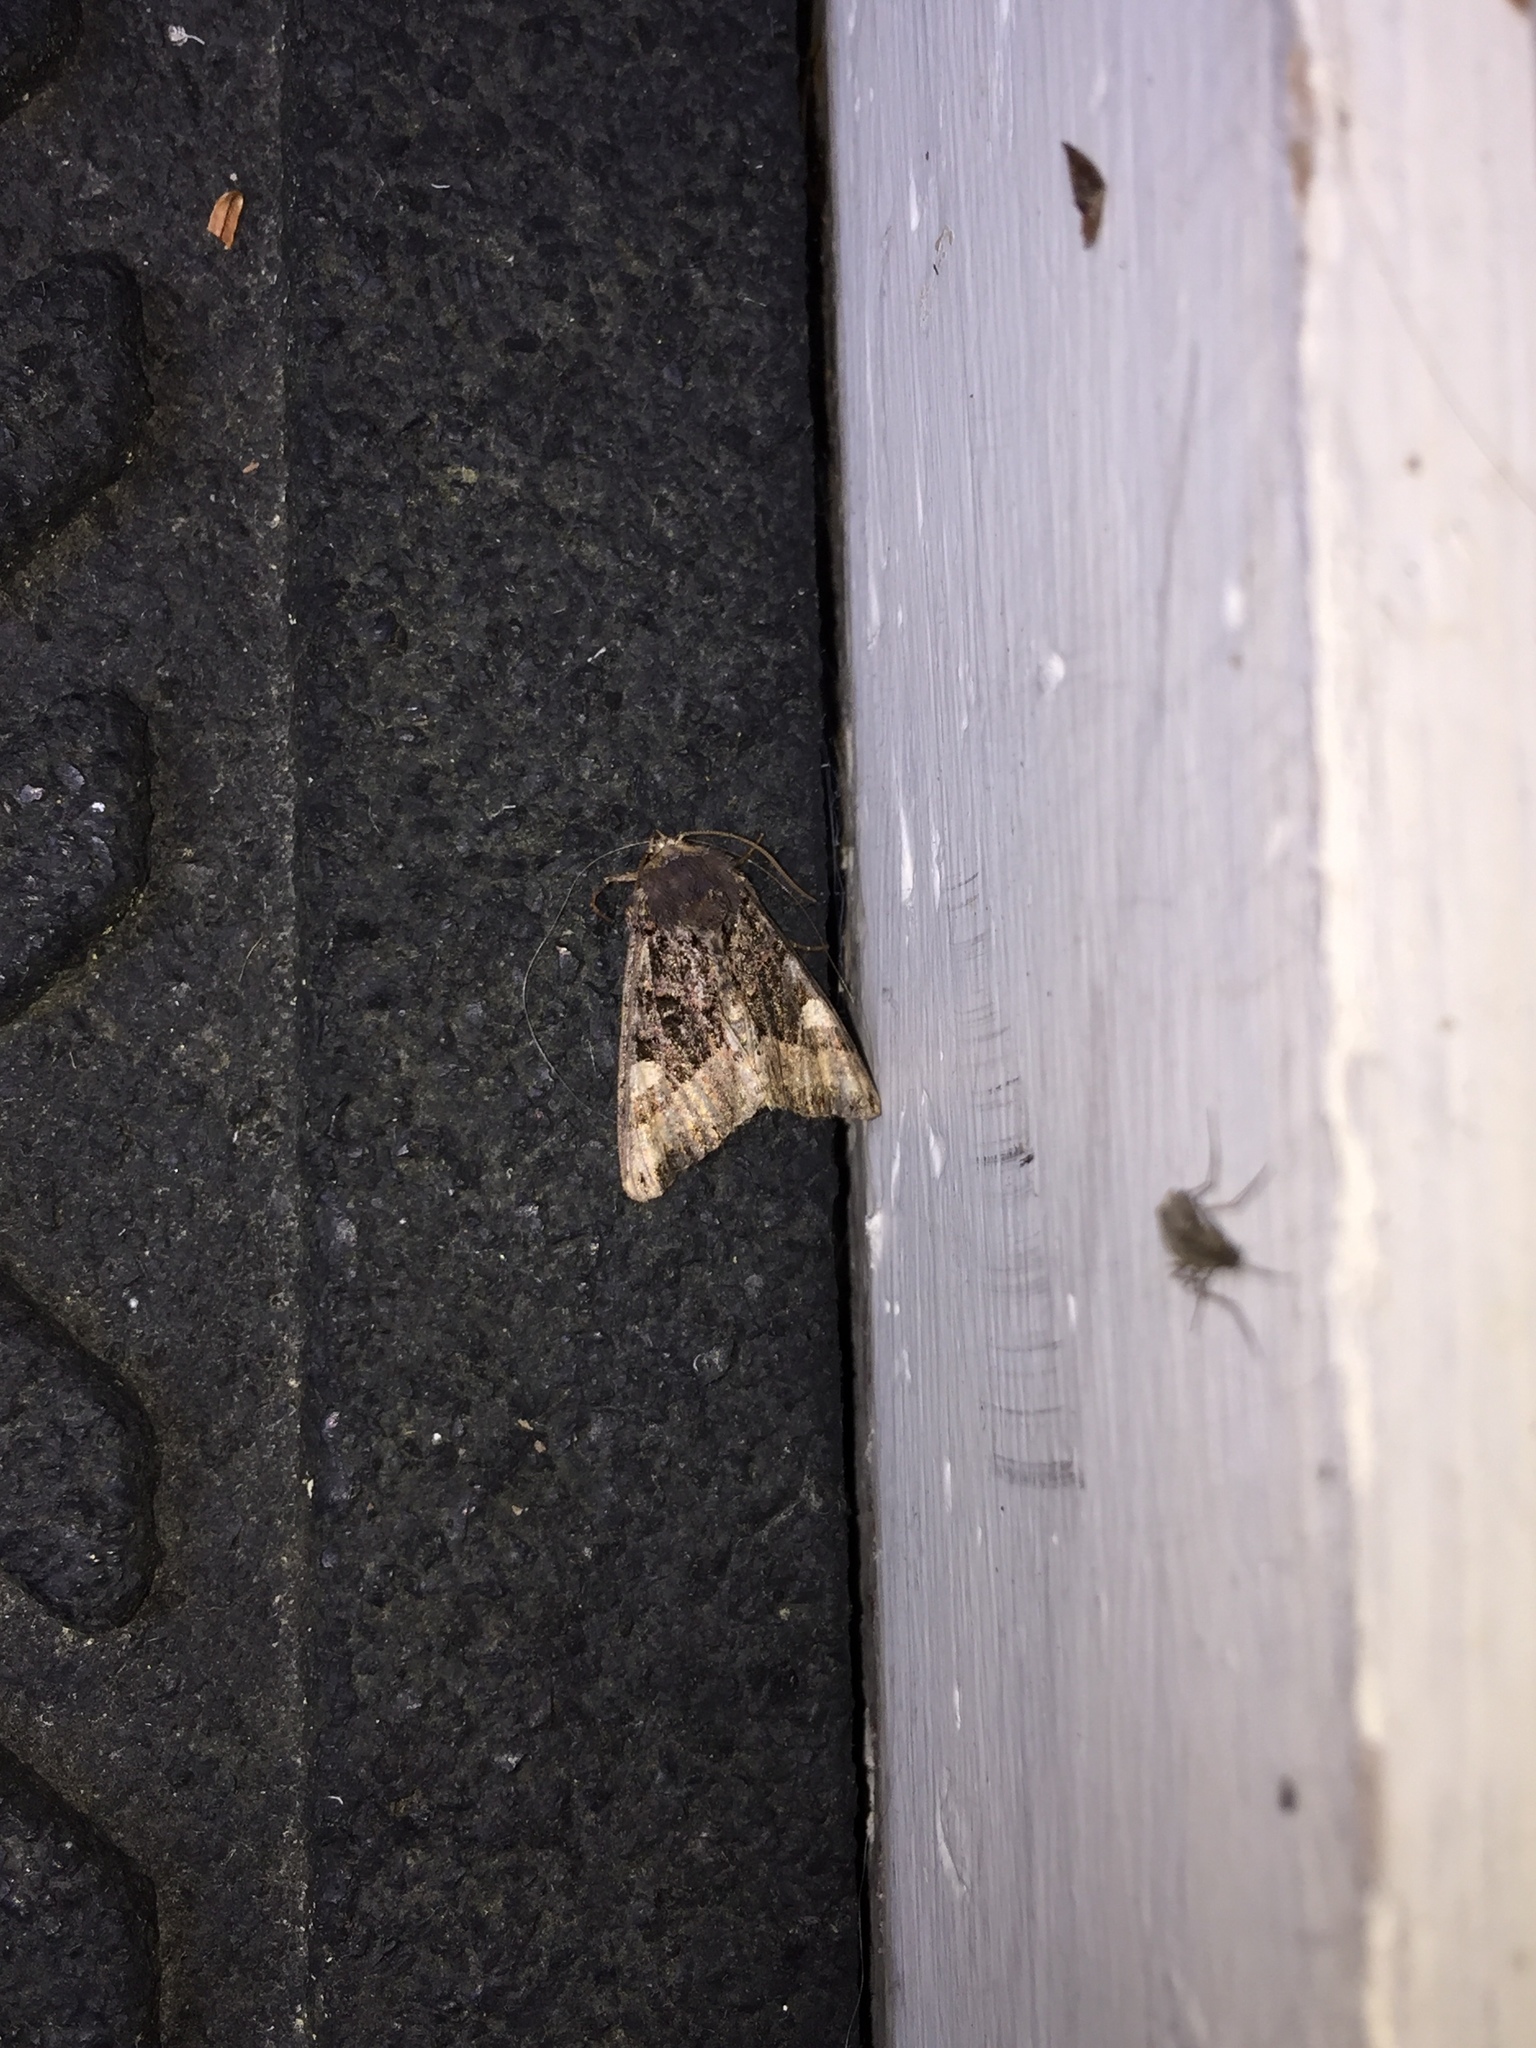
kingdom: Animalia
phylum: Arthropoda
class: Insecta
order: Lepidoptera
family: Noctuidae
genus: Euplexia
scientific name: Euplexia benesimilis
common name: American angle shades
